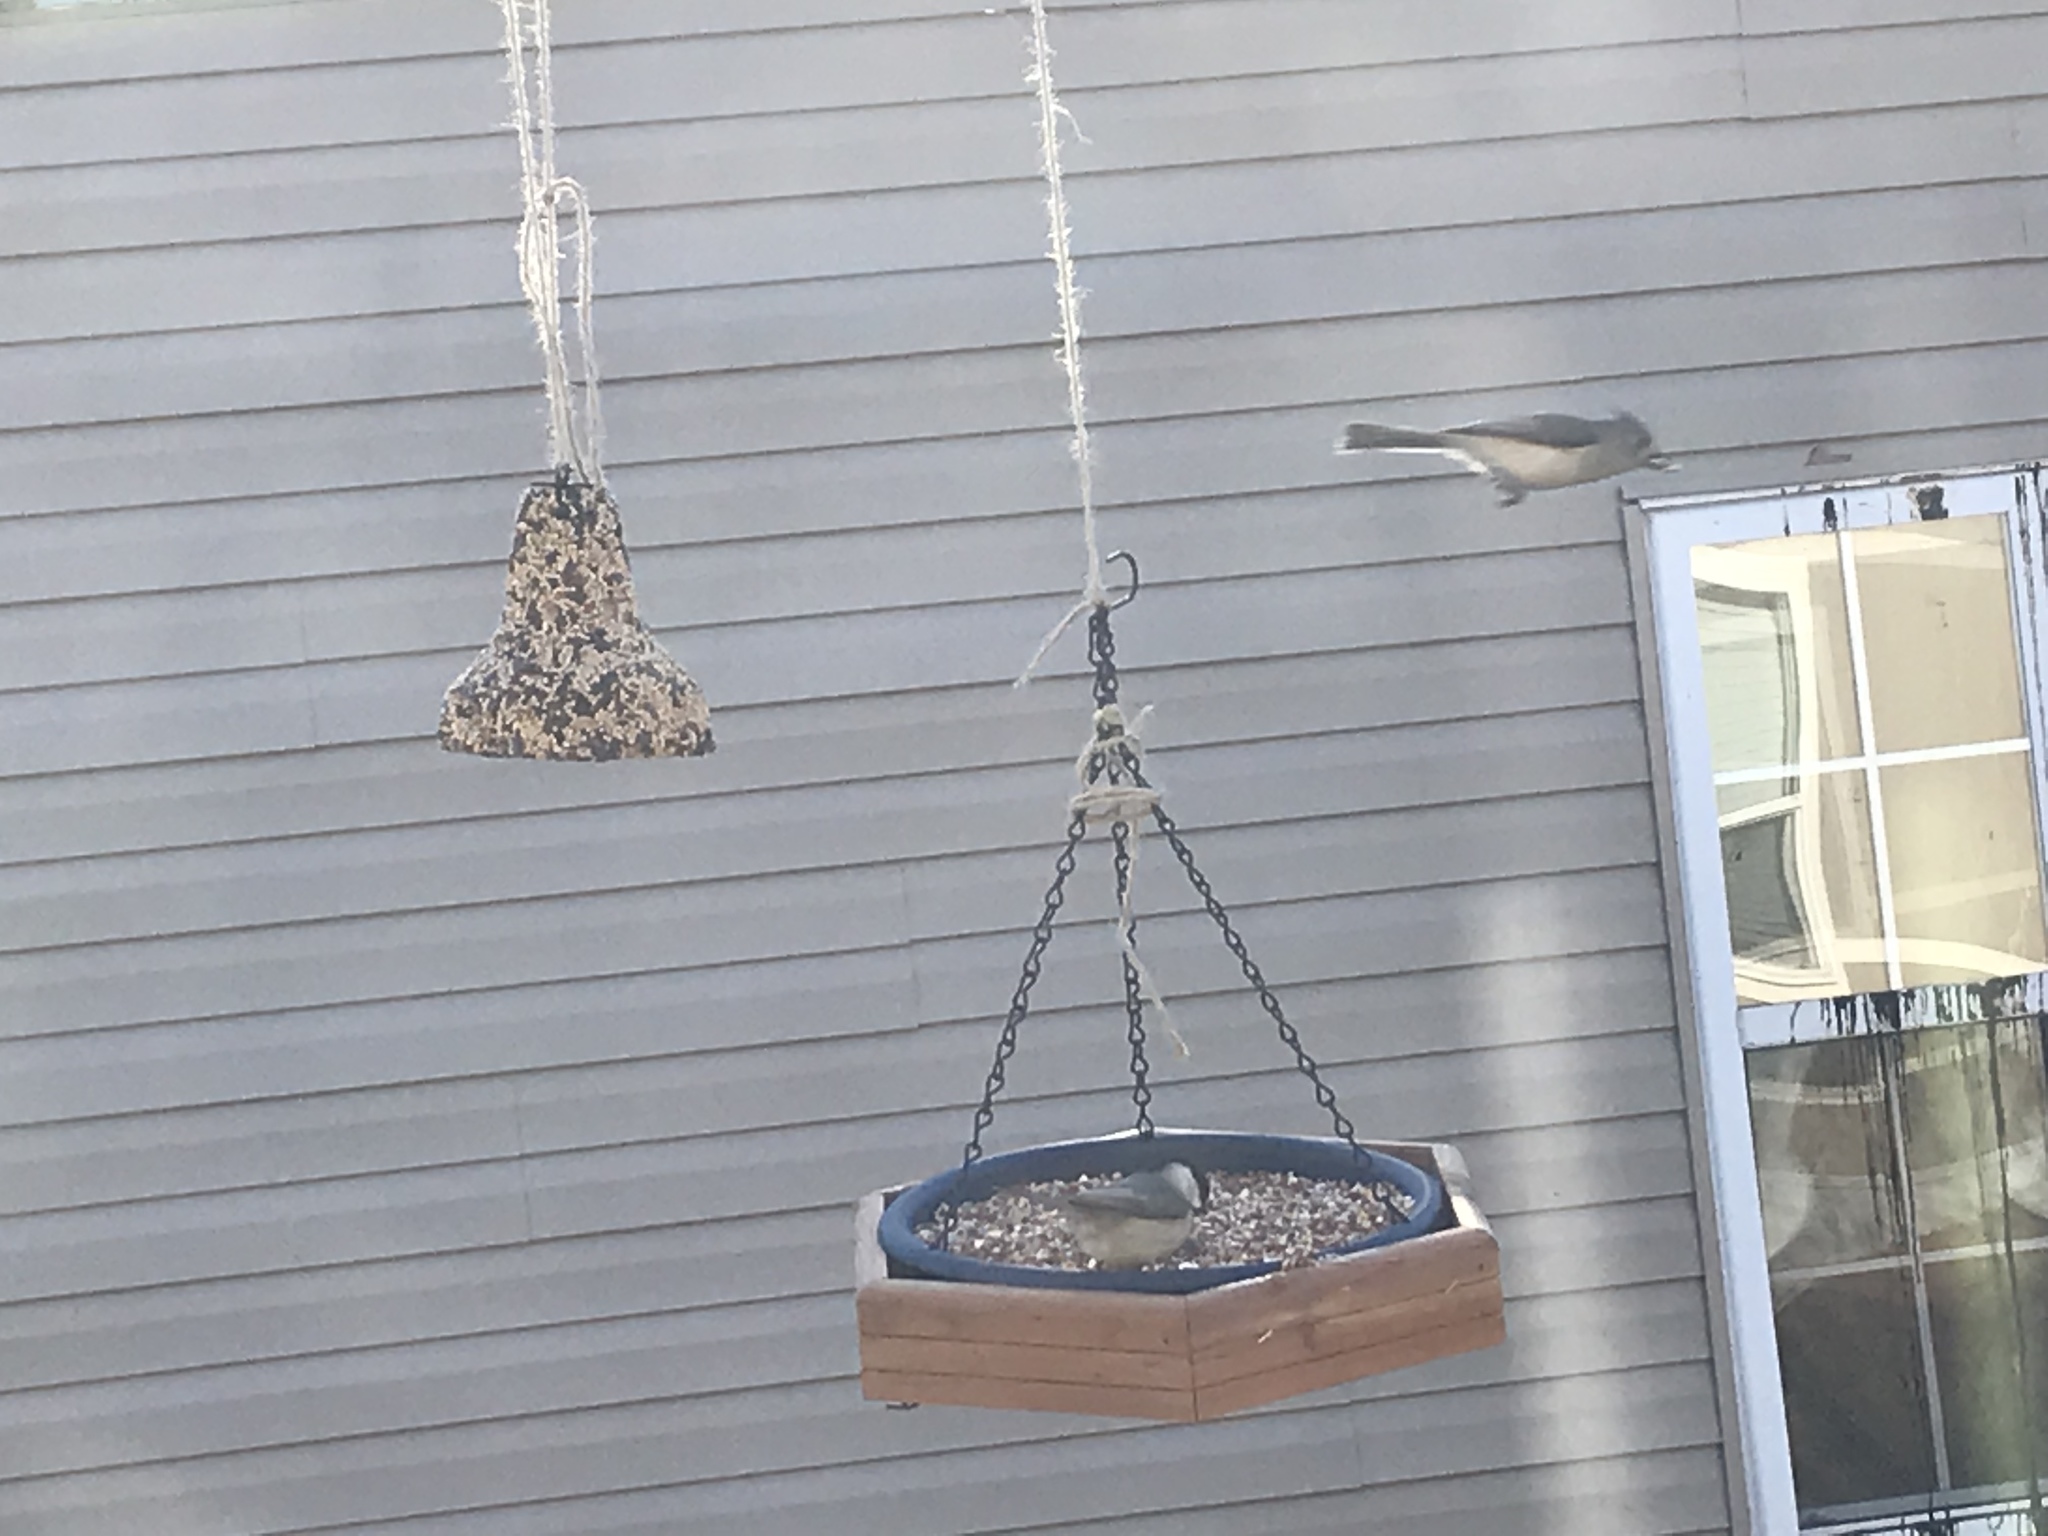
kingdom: Animalia
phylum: Chordata
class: Aves
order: Passeriformes
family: Paridae
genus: Poecile
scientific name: Poecile carolinensis
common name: Carolina chickadee
